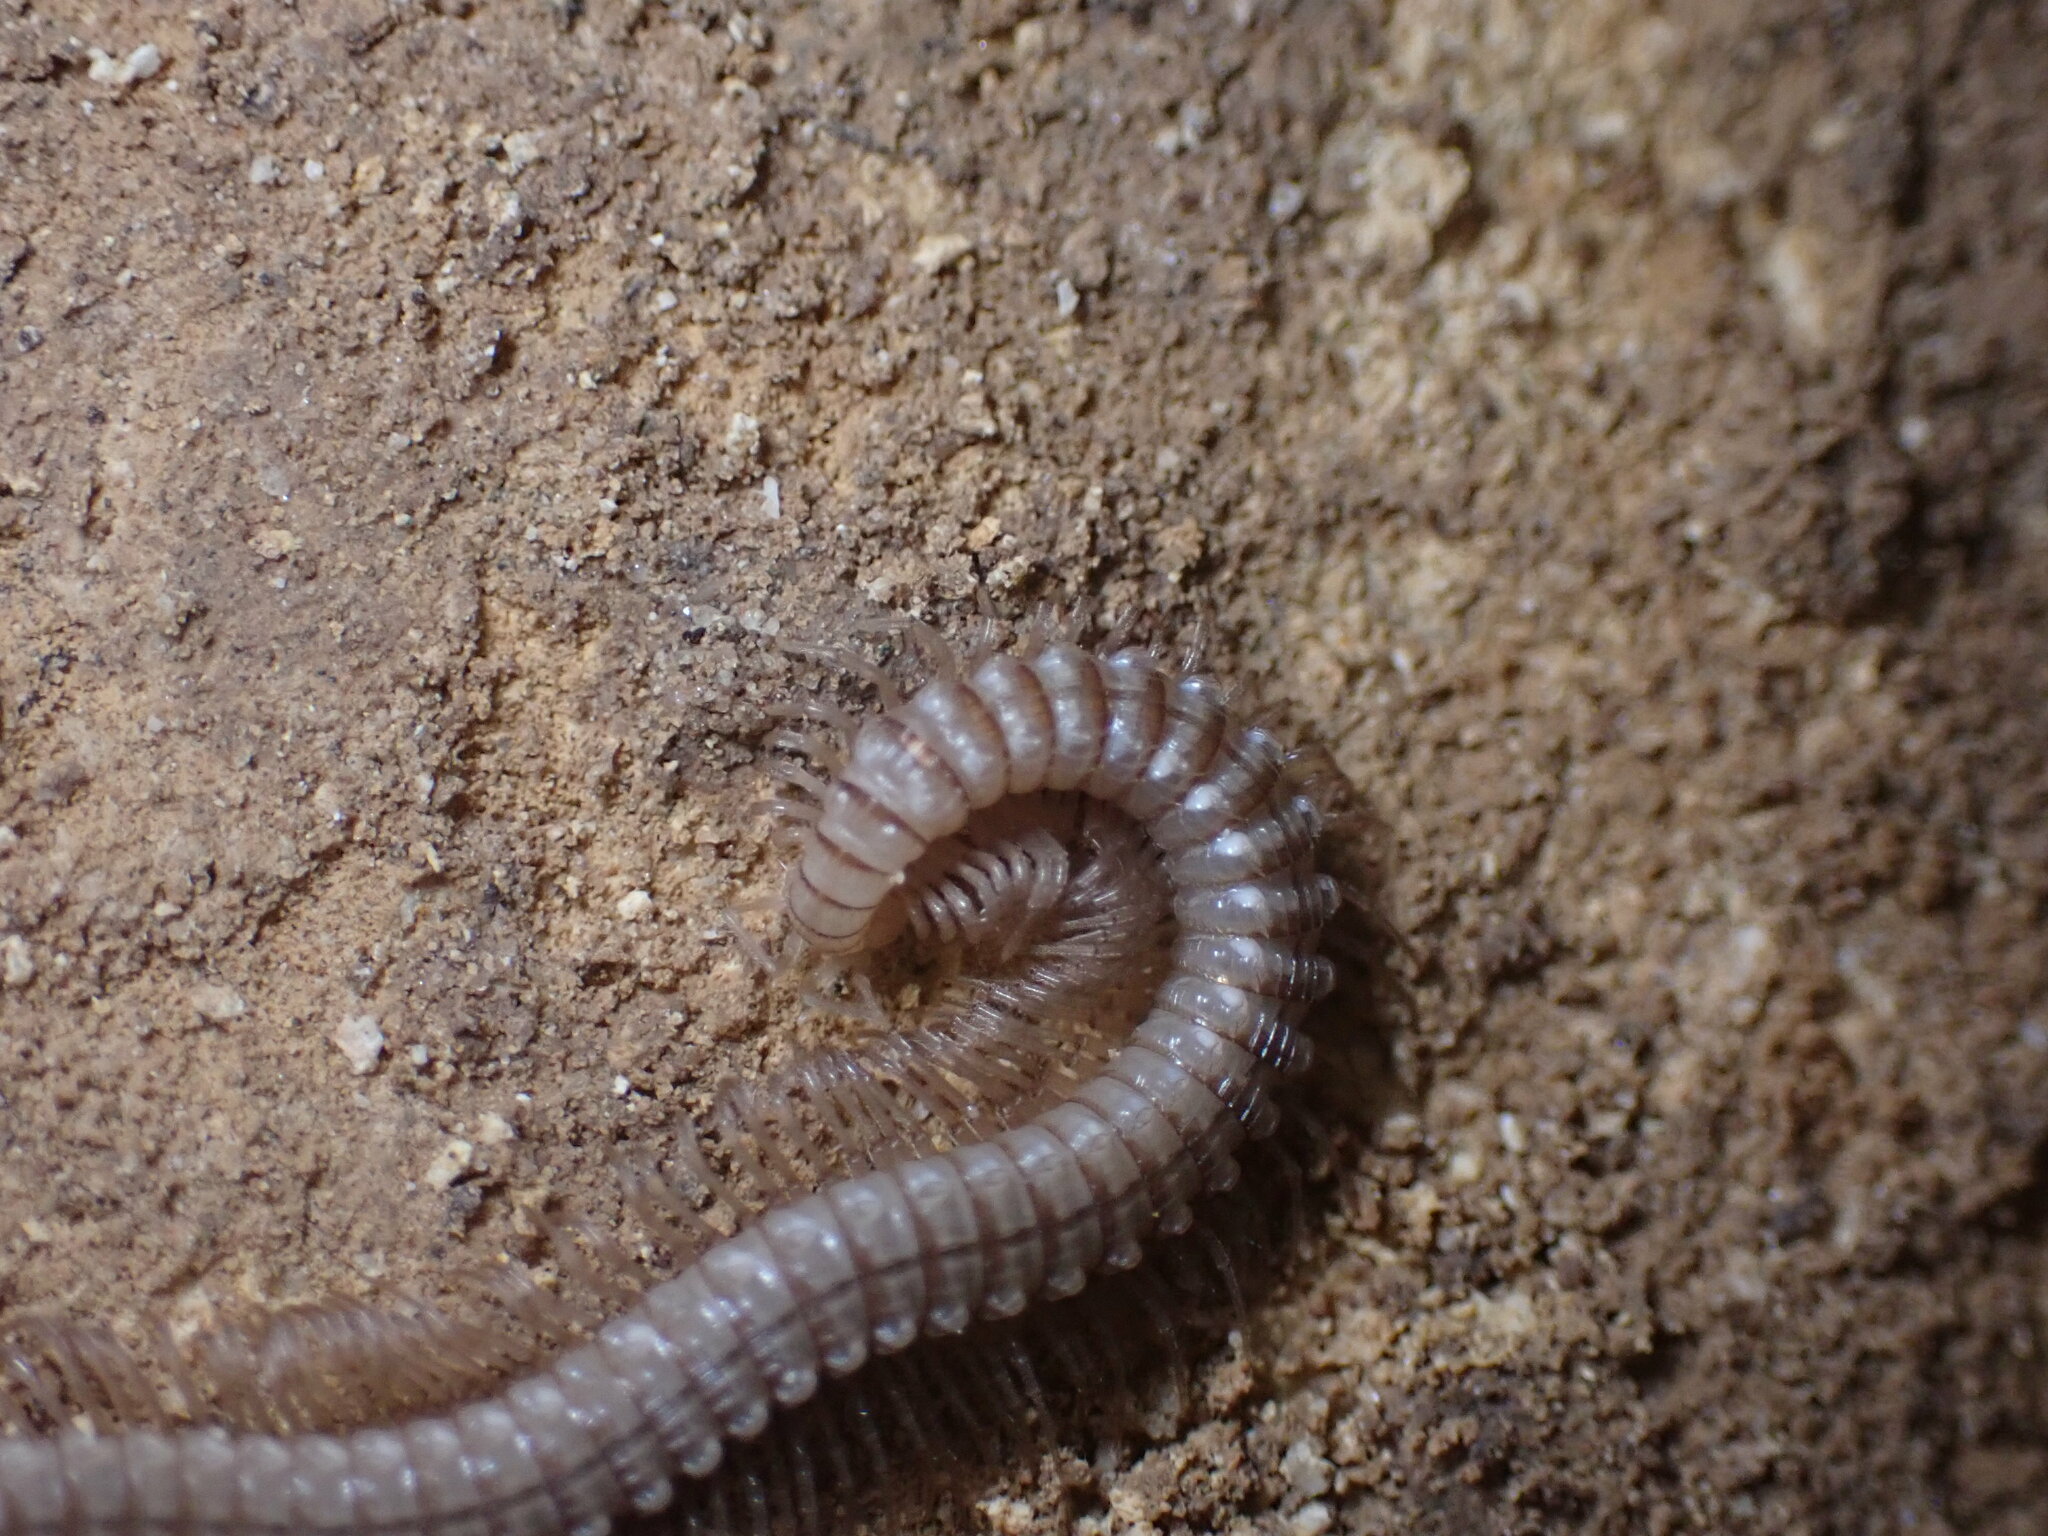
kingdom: Animalia
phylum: Arthropoda
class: Diplopoda
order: Callipodida
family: Abacionidae
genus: Tetracion
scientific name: Tetracion jonesi
